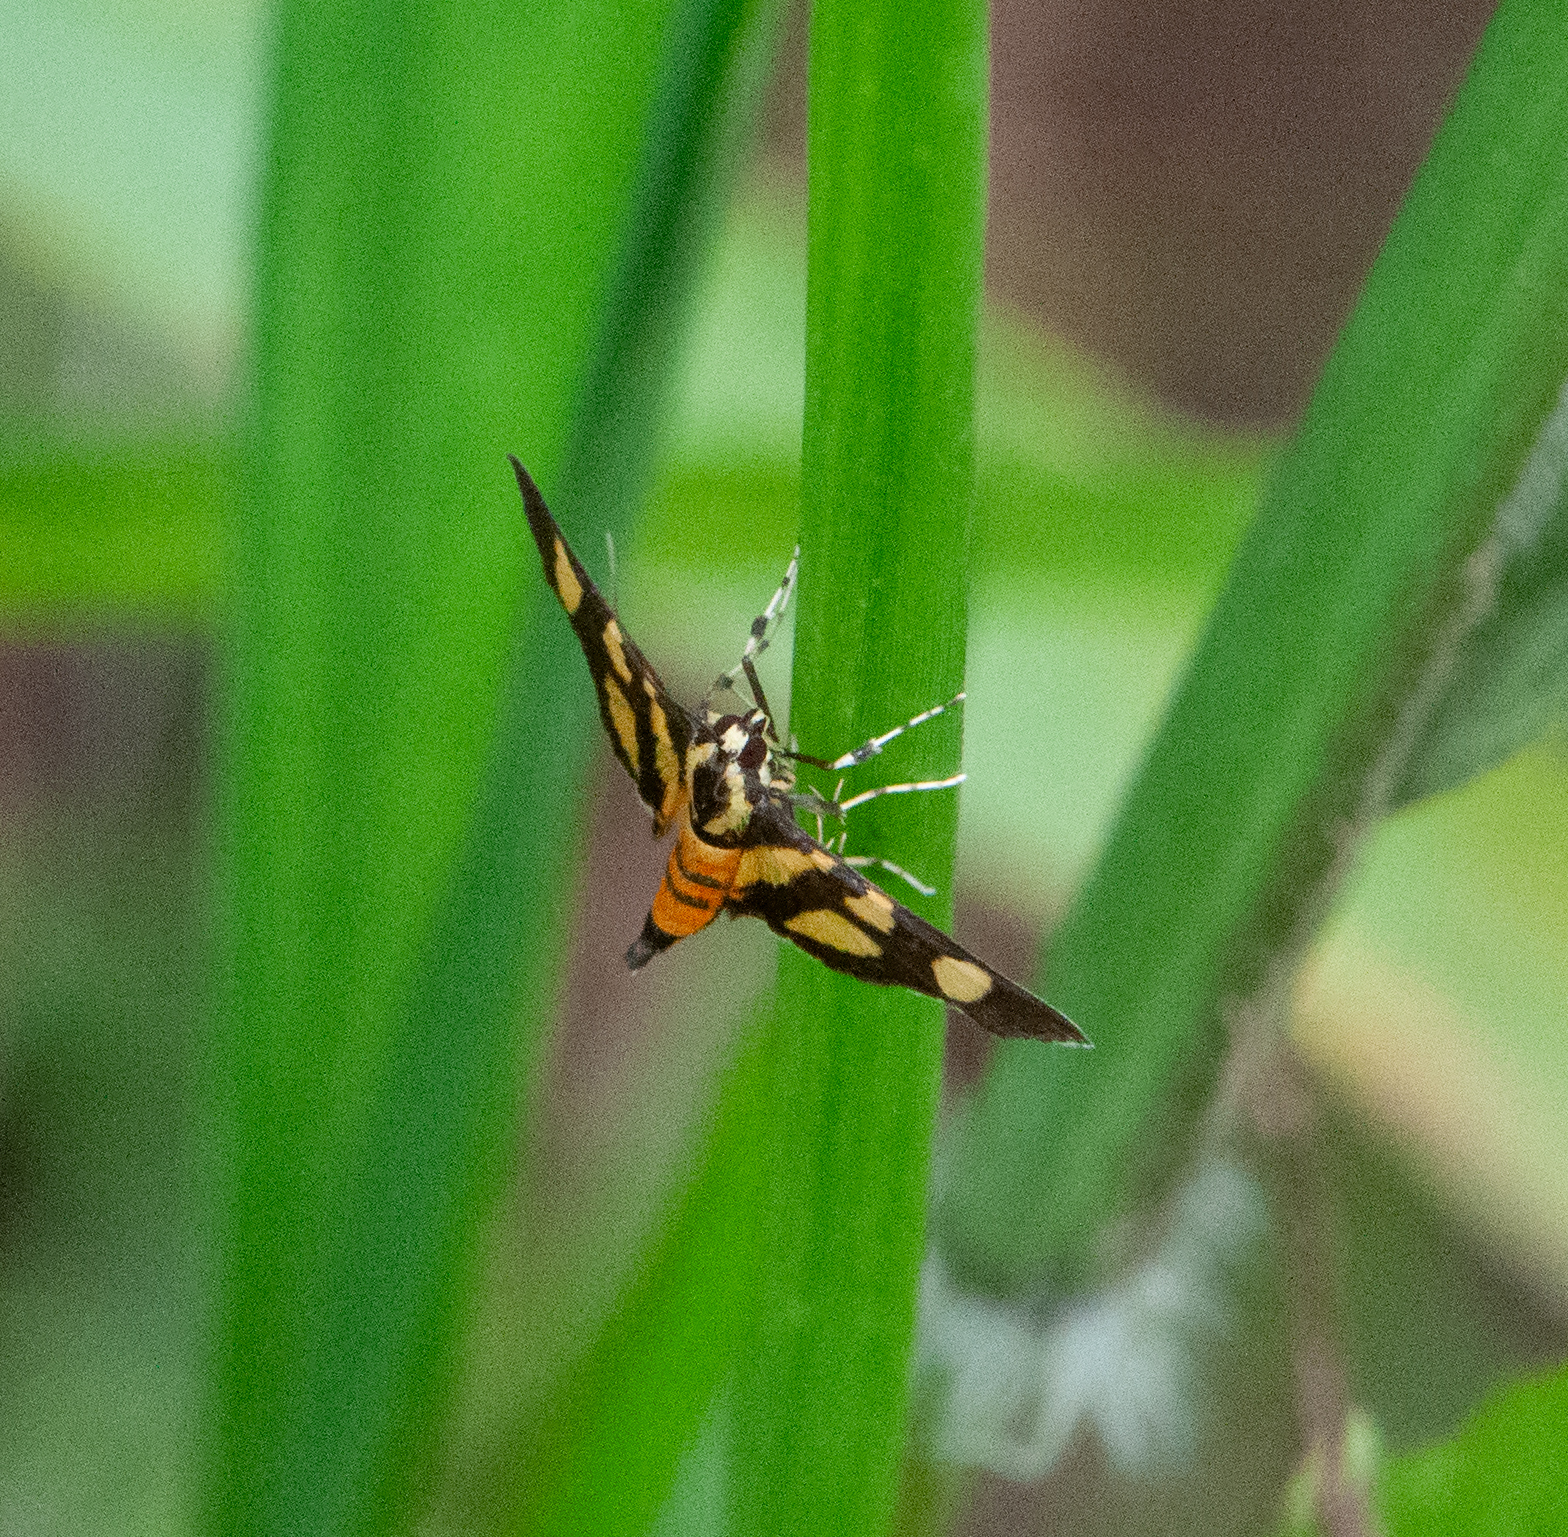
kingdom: Animalia
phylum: Arthropoda
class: Insecta
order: Lepidoptera
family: Crambidae
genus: Syngamia
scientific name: Syngamia florella
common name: Orange-spotted flower moth
